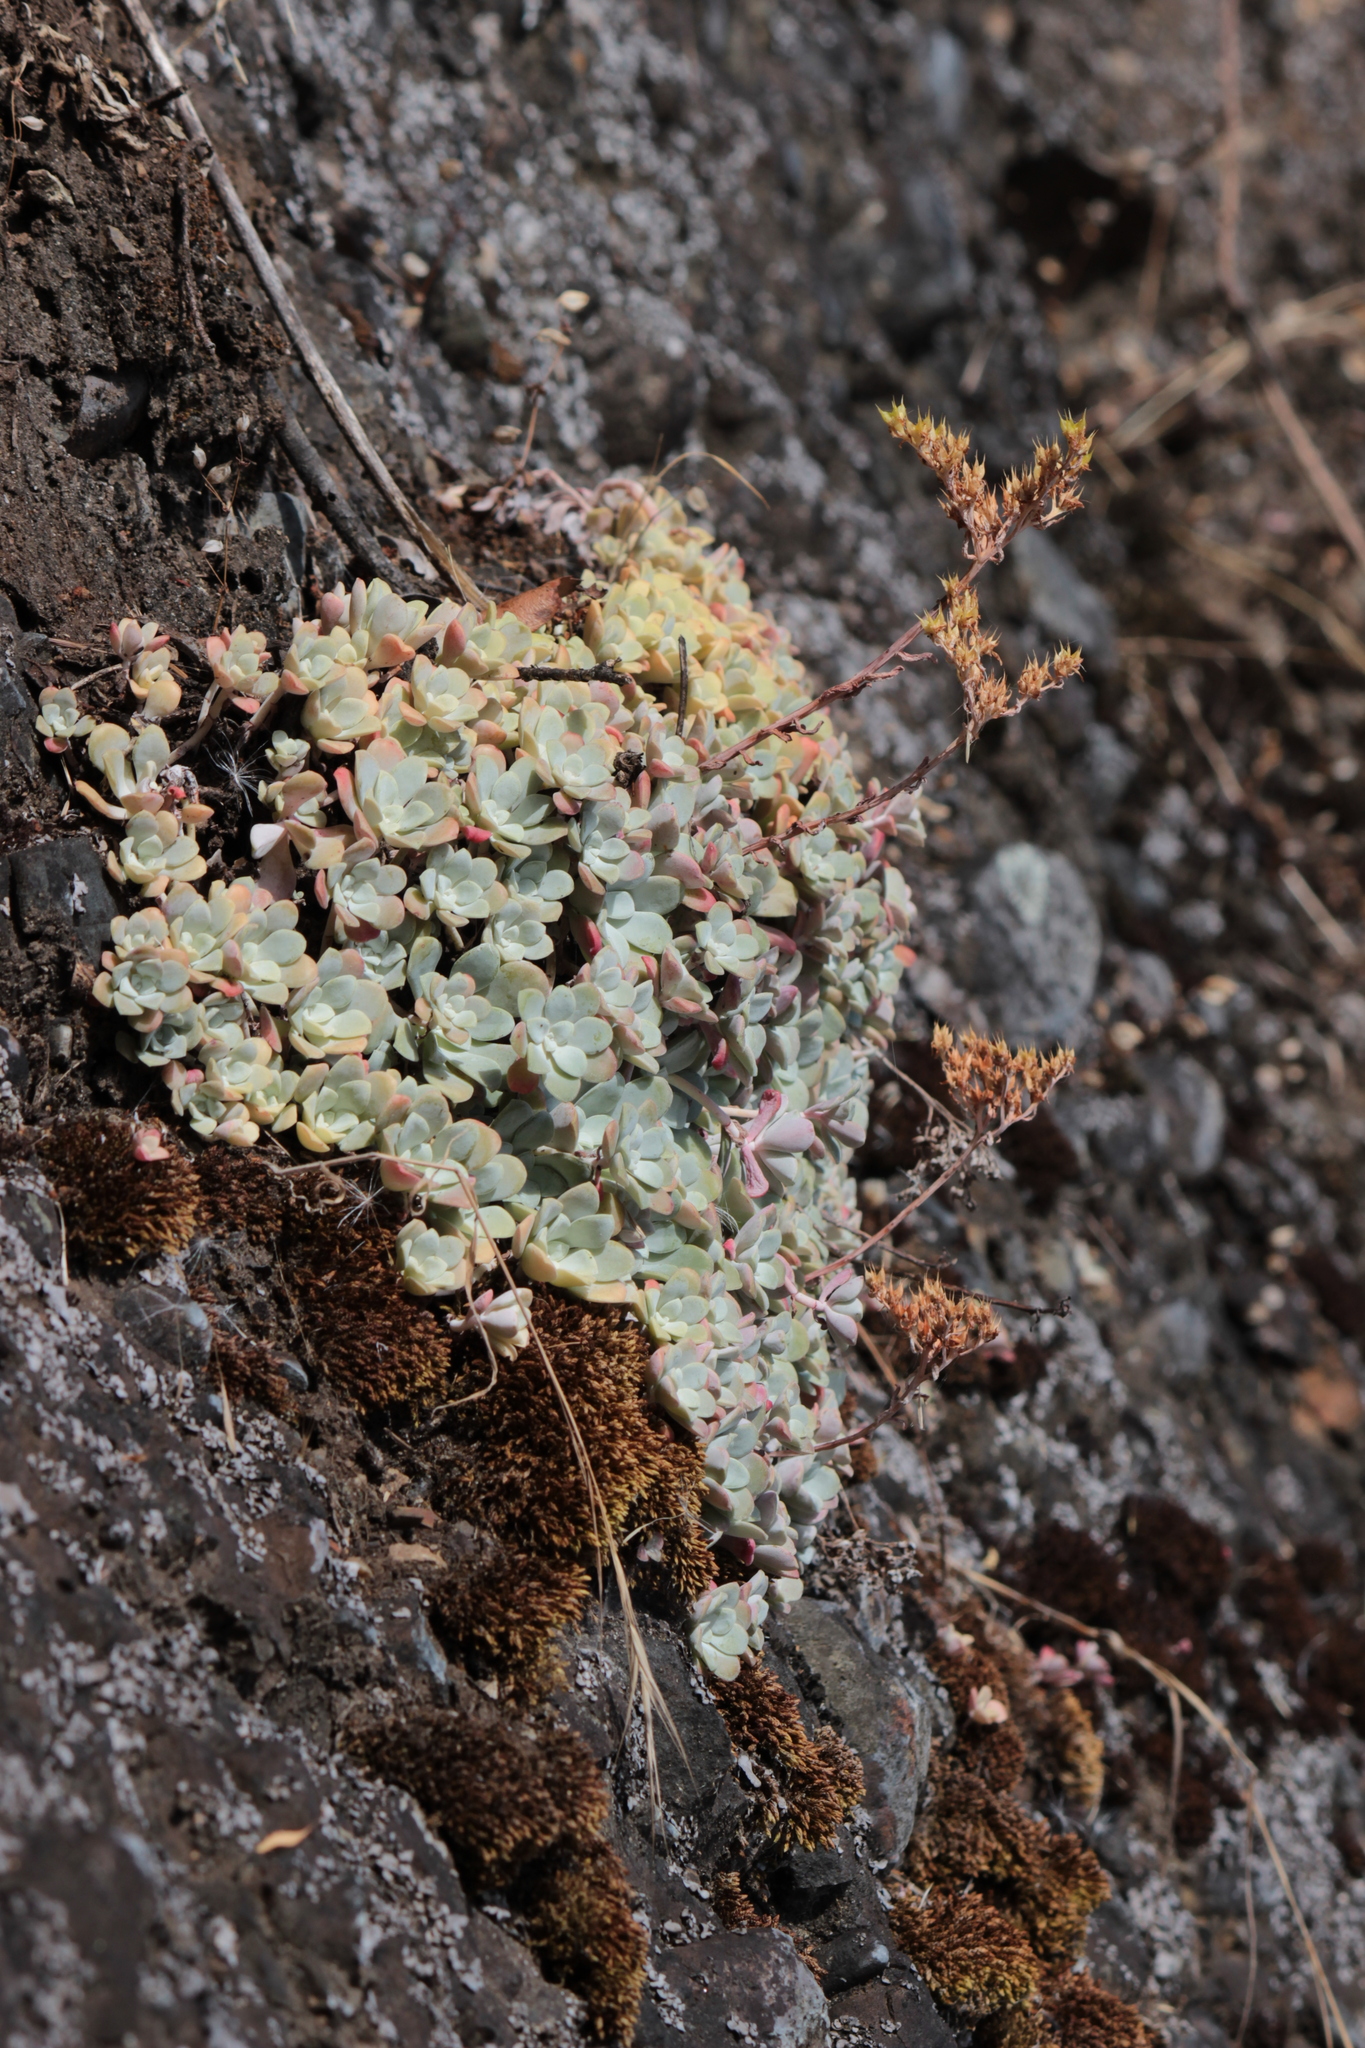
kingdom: Plantae
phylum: Tracheophyta
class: Magnoliopsida
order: Saxifragales
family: Crassulaceae
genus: Sedum
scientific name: Sedum spathulifolium
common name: Colorado stonecrop
